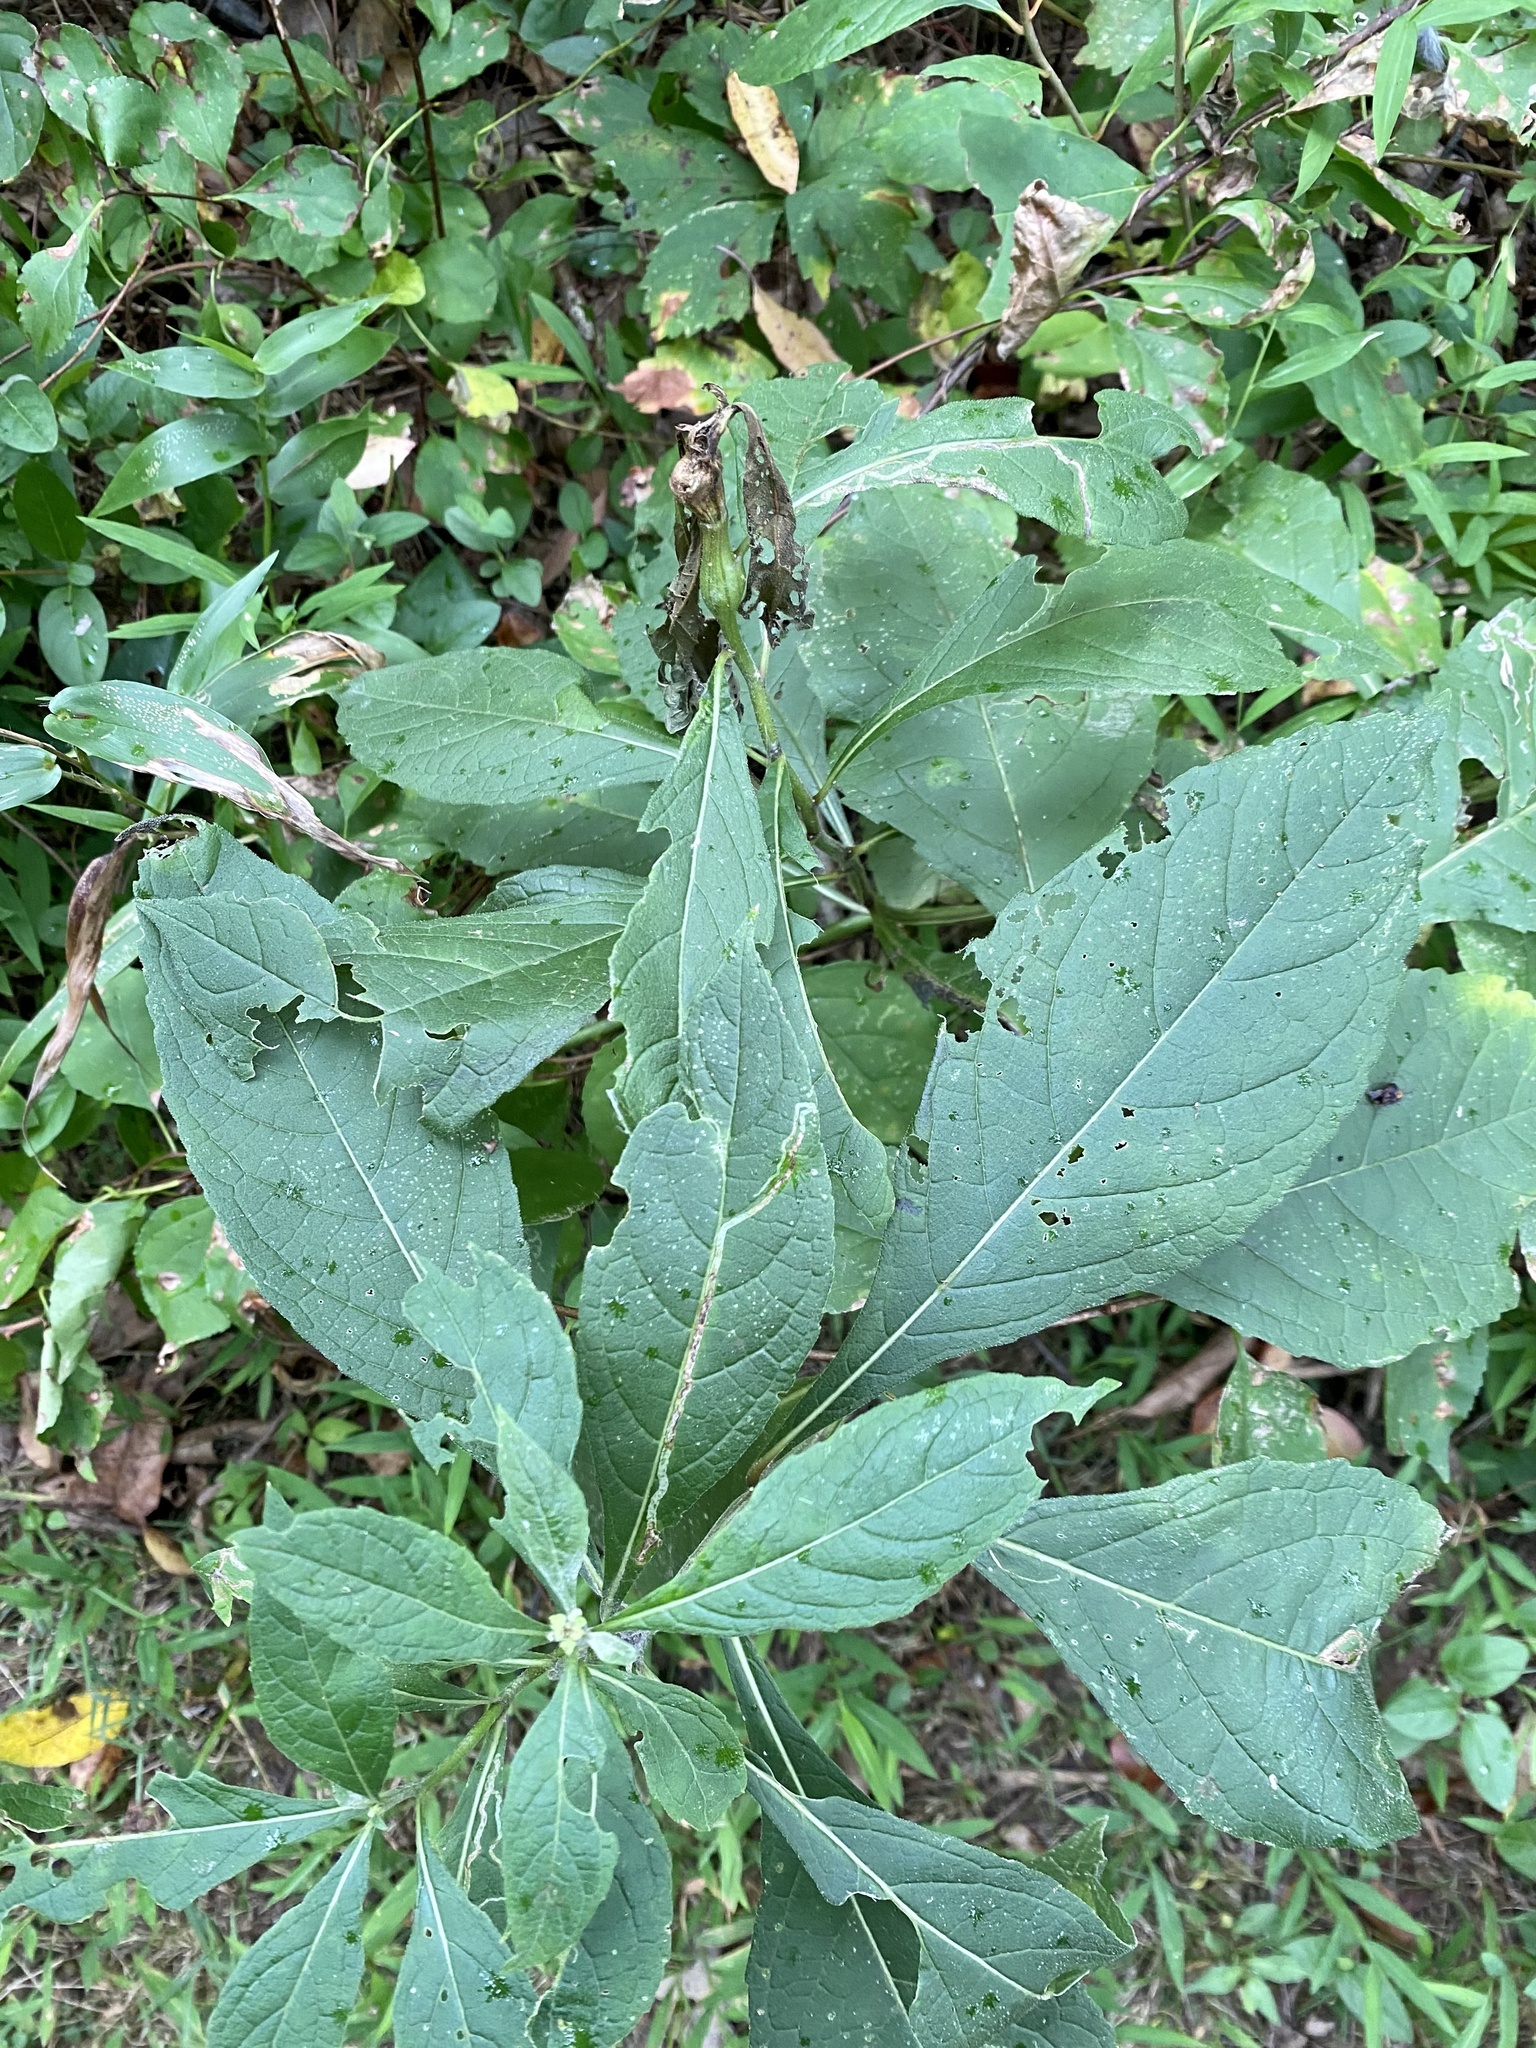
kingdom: Animalia
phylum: Arthropoda
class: Insecta
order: Diptera
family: Cecidomyiidae
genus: Neolasioptera
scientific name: Neolasioptera verbesinae
